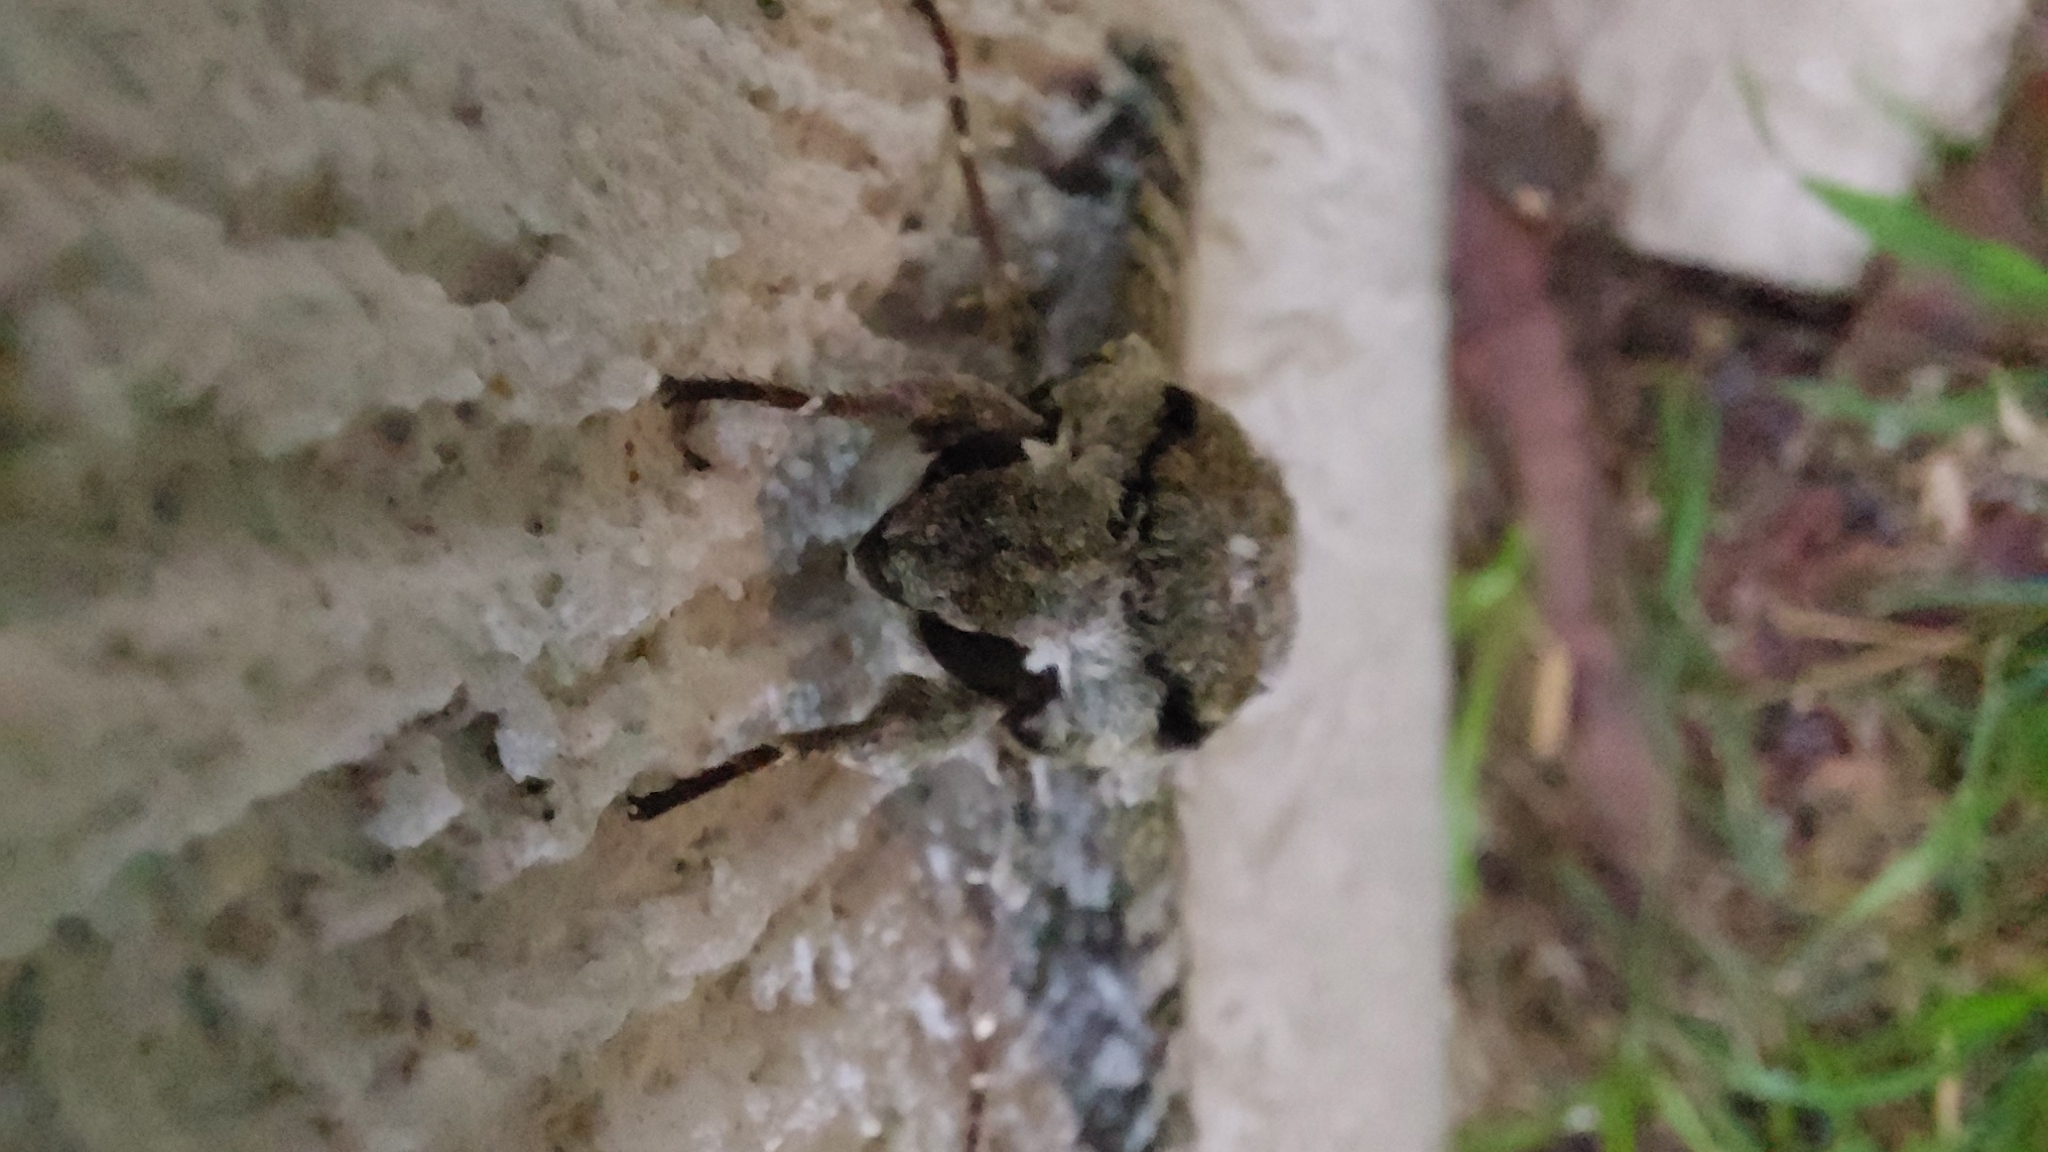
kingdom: Animalia
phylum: Arthropoda
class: Insecta
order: Lepidoptera
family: Sphingidae
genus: Manduca
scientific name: Manduca florestan
